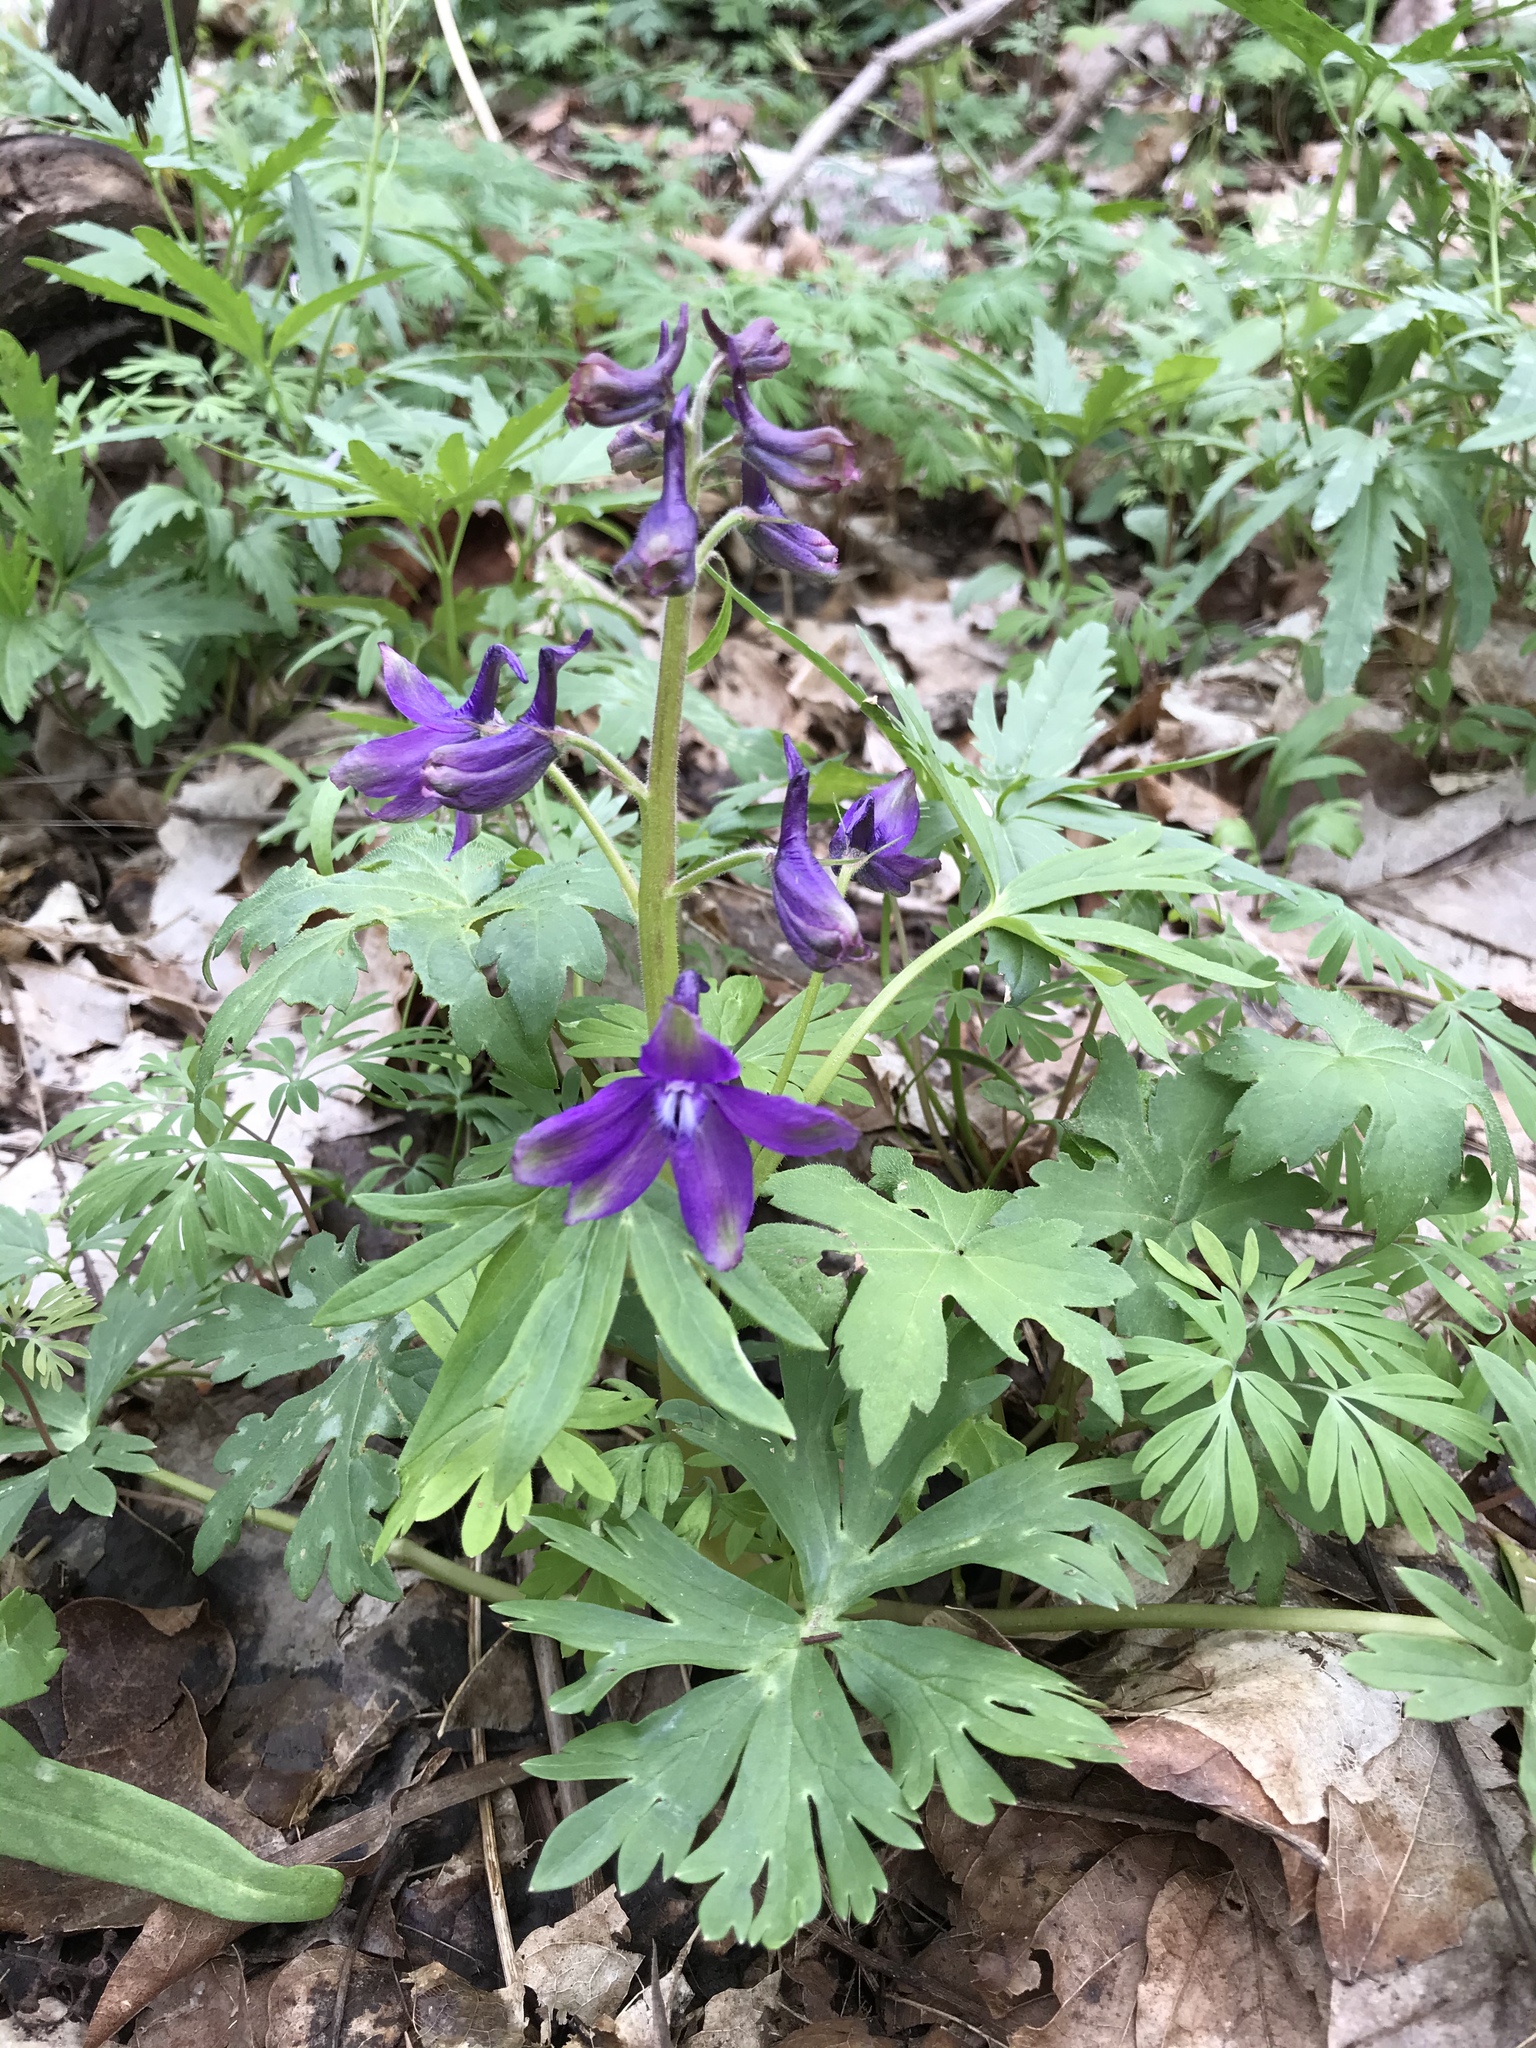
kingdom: Plantae
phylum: Tracheophyta
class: Magnoliopsida
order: Ranunculales
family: Ranunculaceae
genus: Delphinium
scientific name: Delphinium tricorne
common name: Dwarf larkspur
